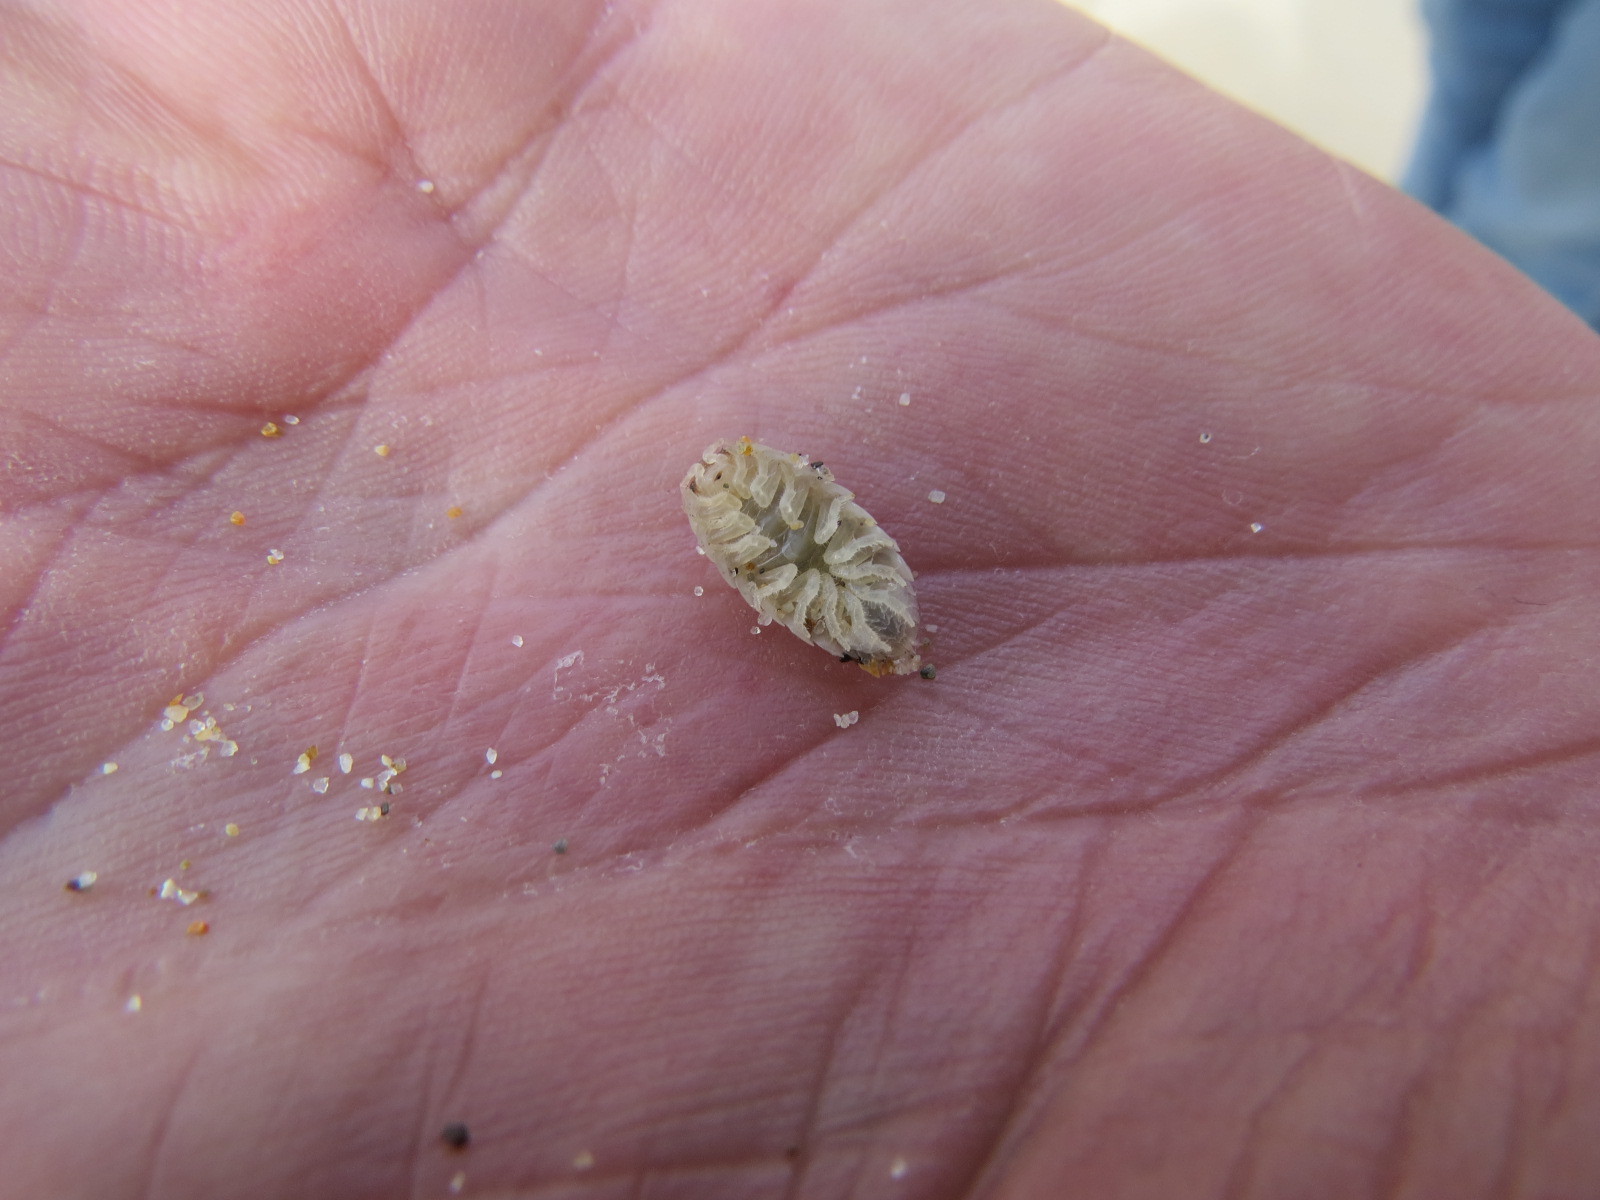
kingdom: Animalia
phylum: Arthropoda
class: Malacostraca
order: Isopoda
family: Alloniscidae
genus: Alloniscus
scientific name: Alloniscus perconvexus
